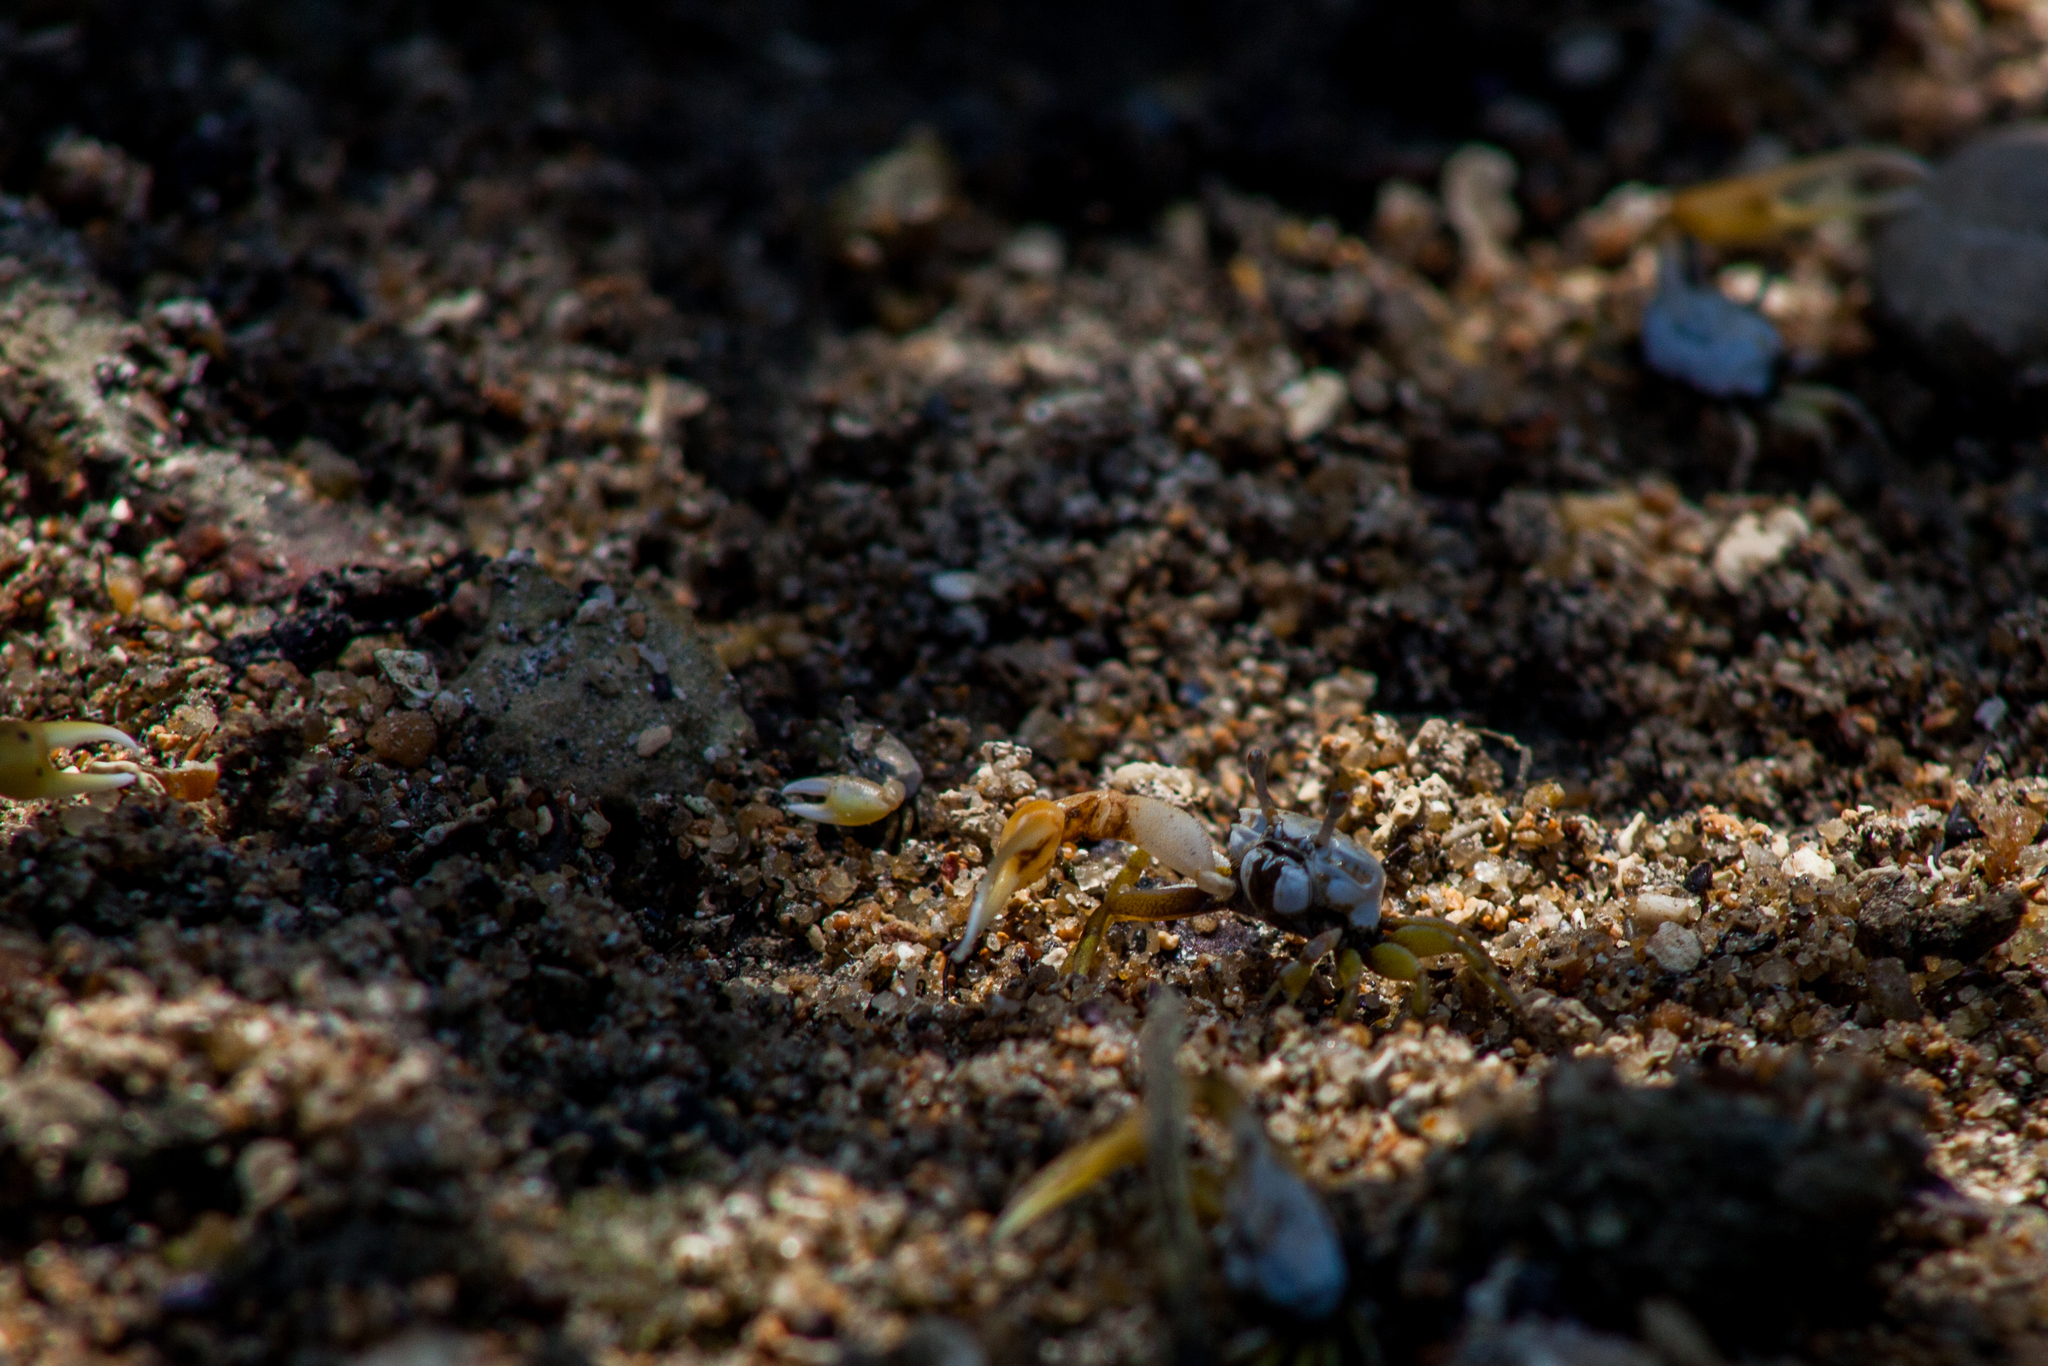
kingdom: Animalia
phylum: Arthropoda
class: Malacostraca
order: Decapoda
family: Ocypodidae
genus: Leptuca
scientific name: Leptuca leptodactyla
